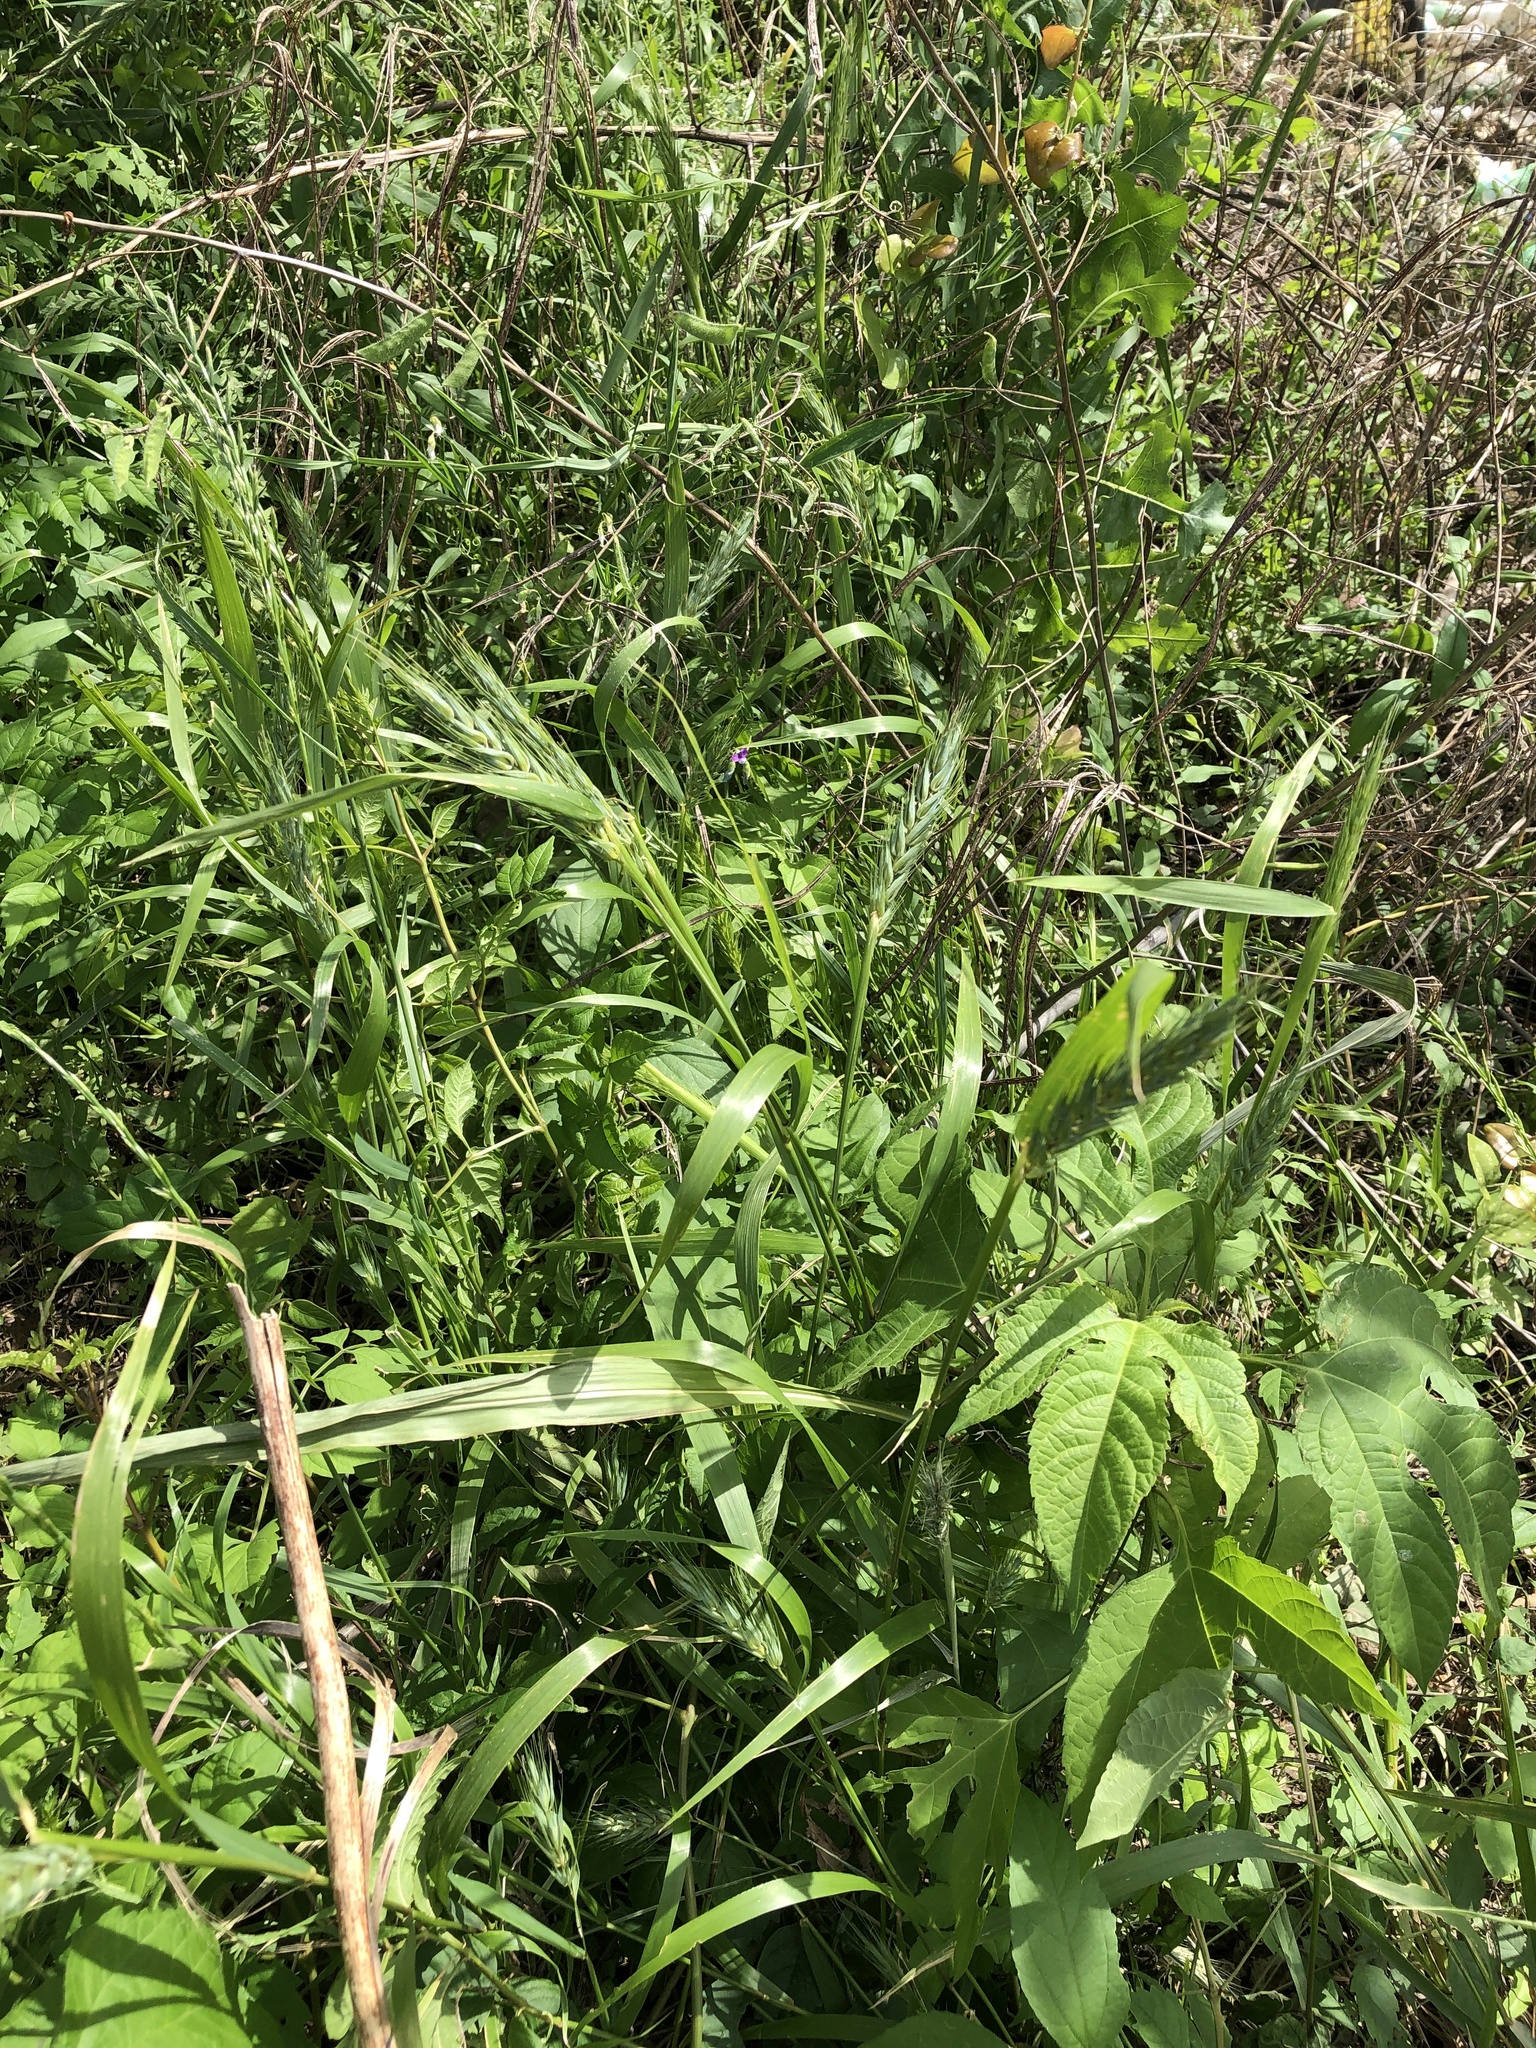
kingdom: Plantae
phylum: Tracheophyta
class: Liliopsida
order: Poales
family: Poaceae
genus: Elymus
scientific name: Elymus virginicus
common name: Common eastern wildrye
